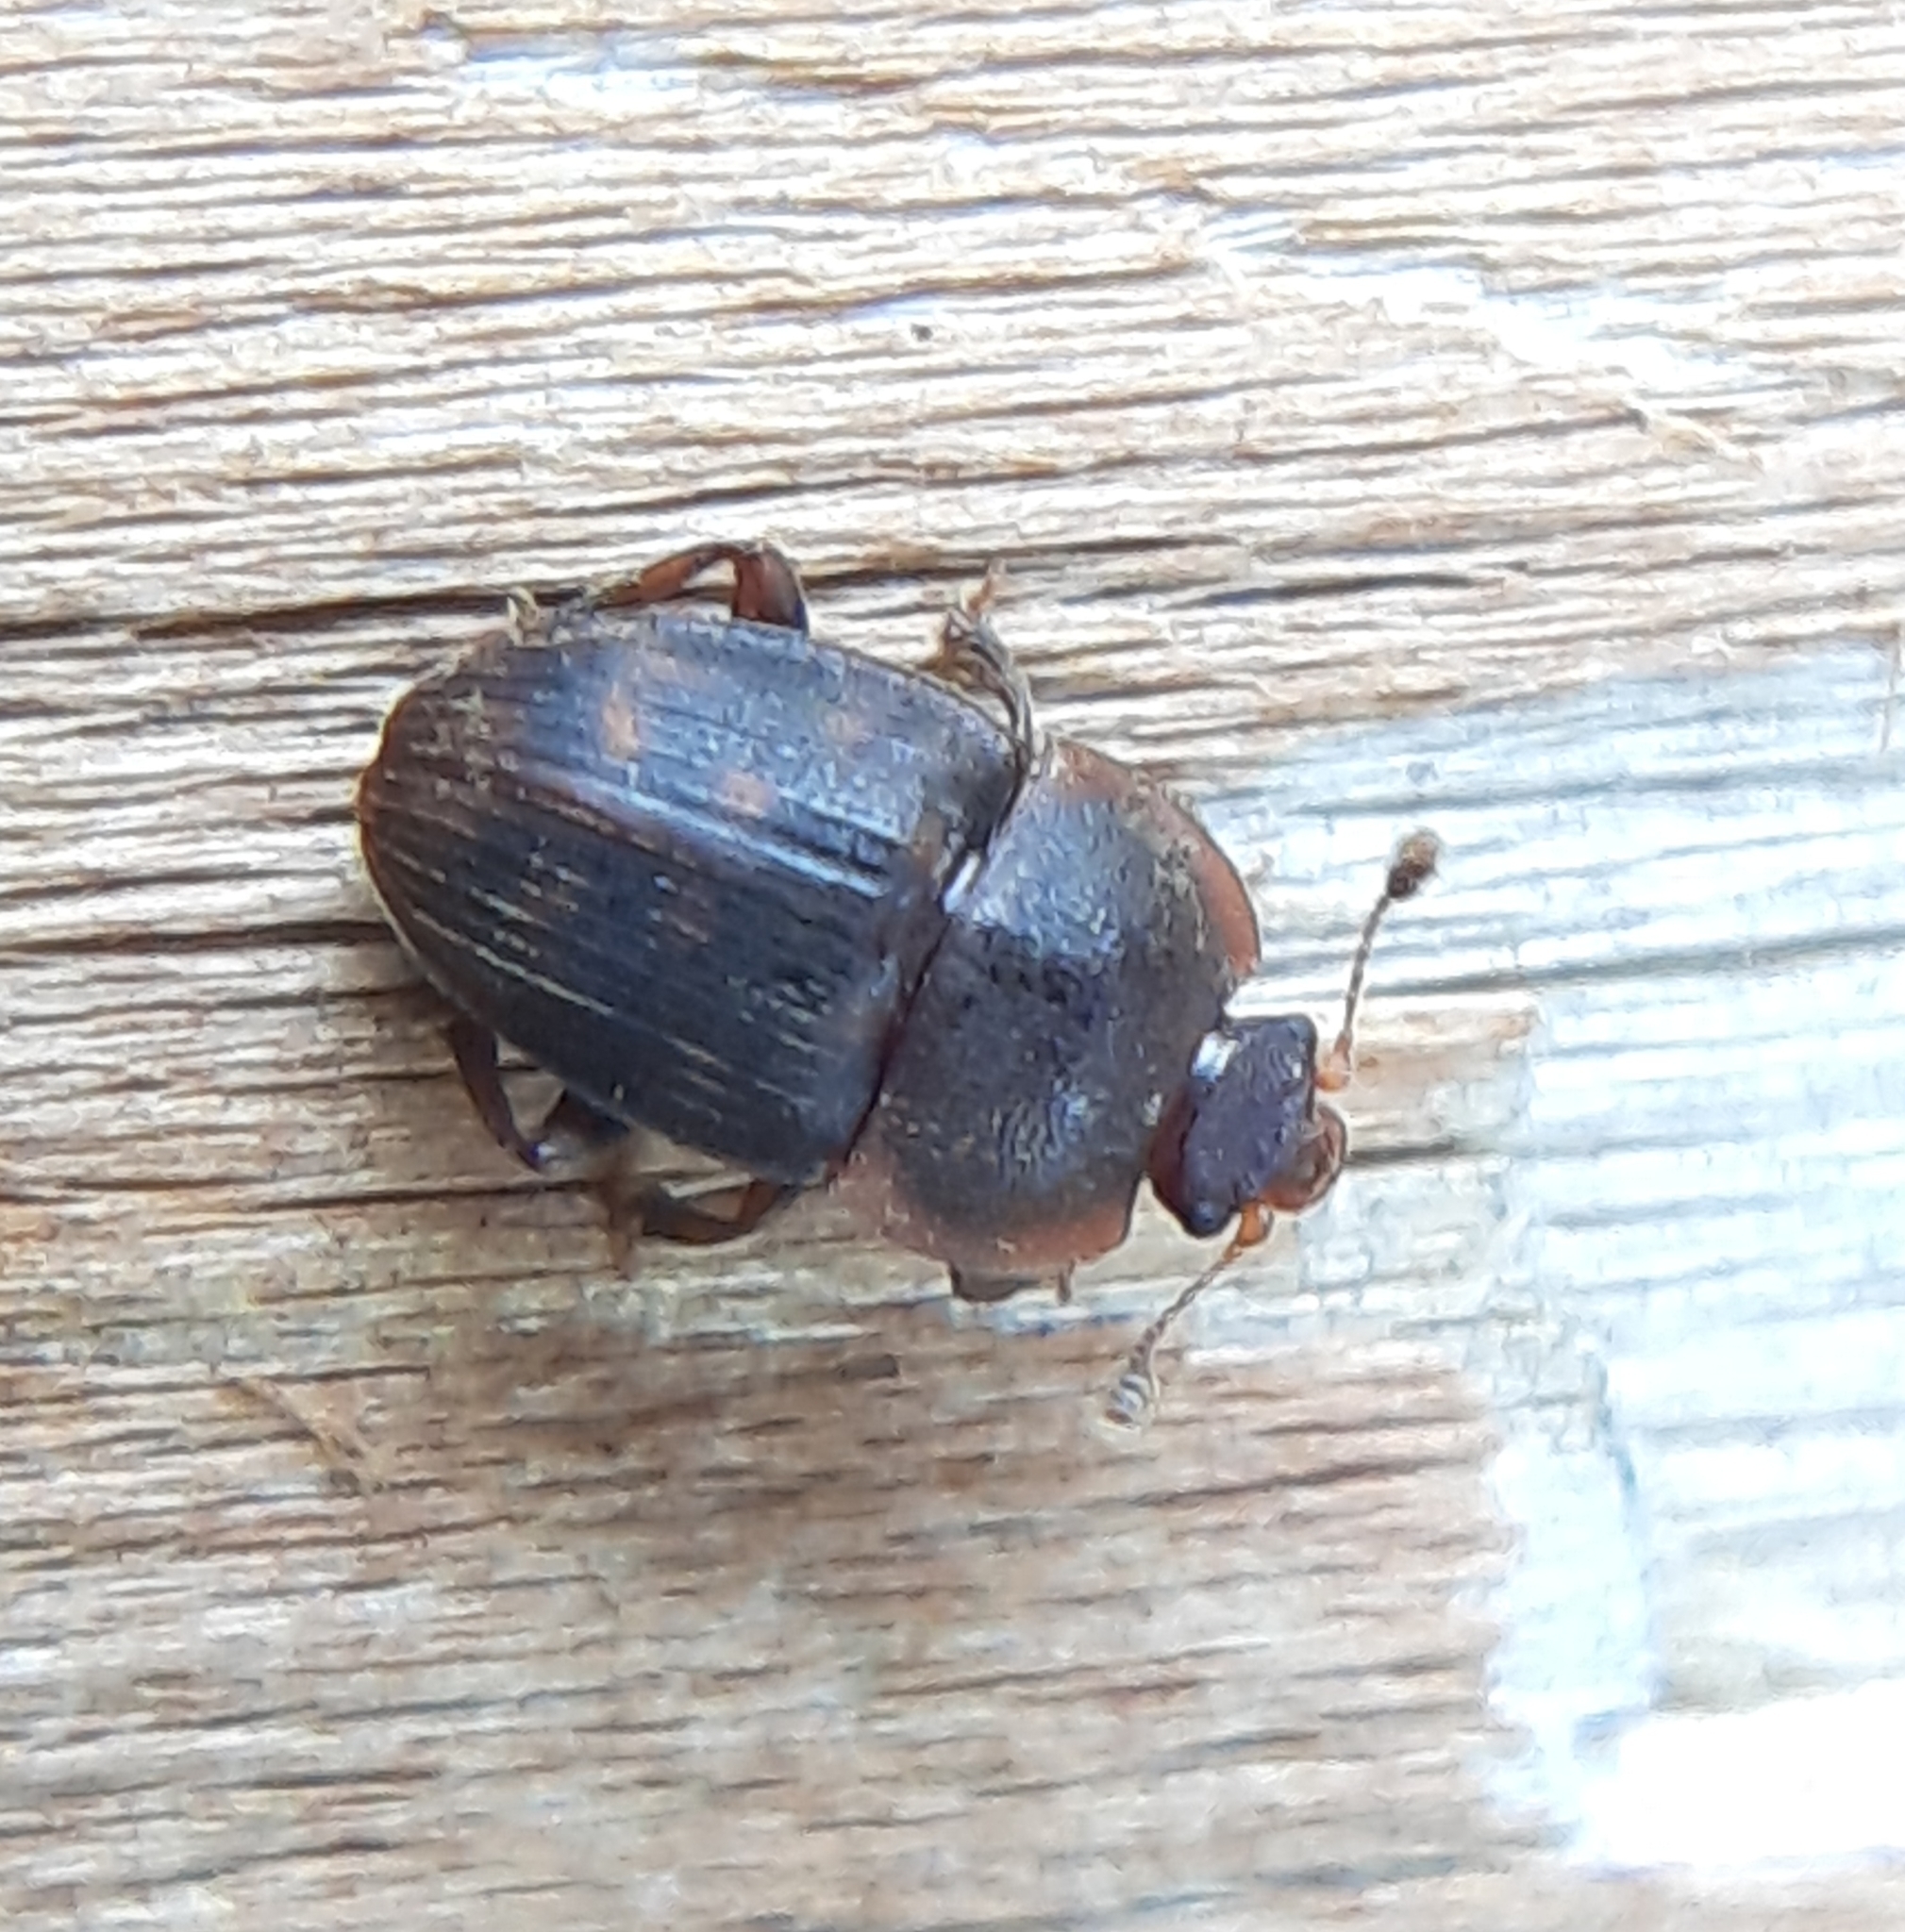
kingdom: Animalia
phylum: Arthropoda
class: Insecta
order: Coleoptera
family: Nitidulidae
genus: Stelidota
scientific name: Stelidota octomaculata
